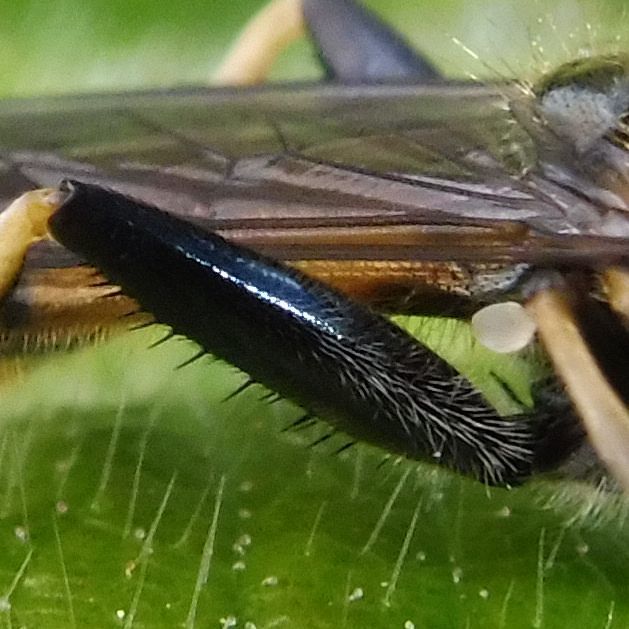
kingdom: Animalia
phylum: Arthropoda
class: Insecta
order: Diptera
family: Syrphidae
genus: Xylota
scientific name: Xylota segnis
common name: Brown-toed forest fly
